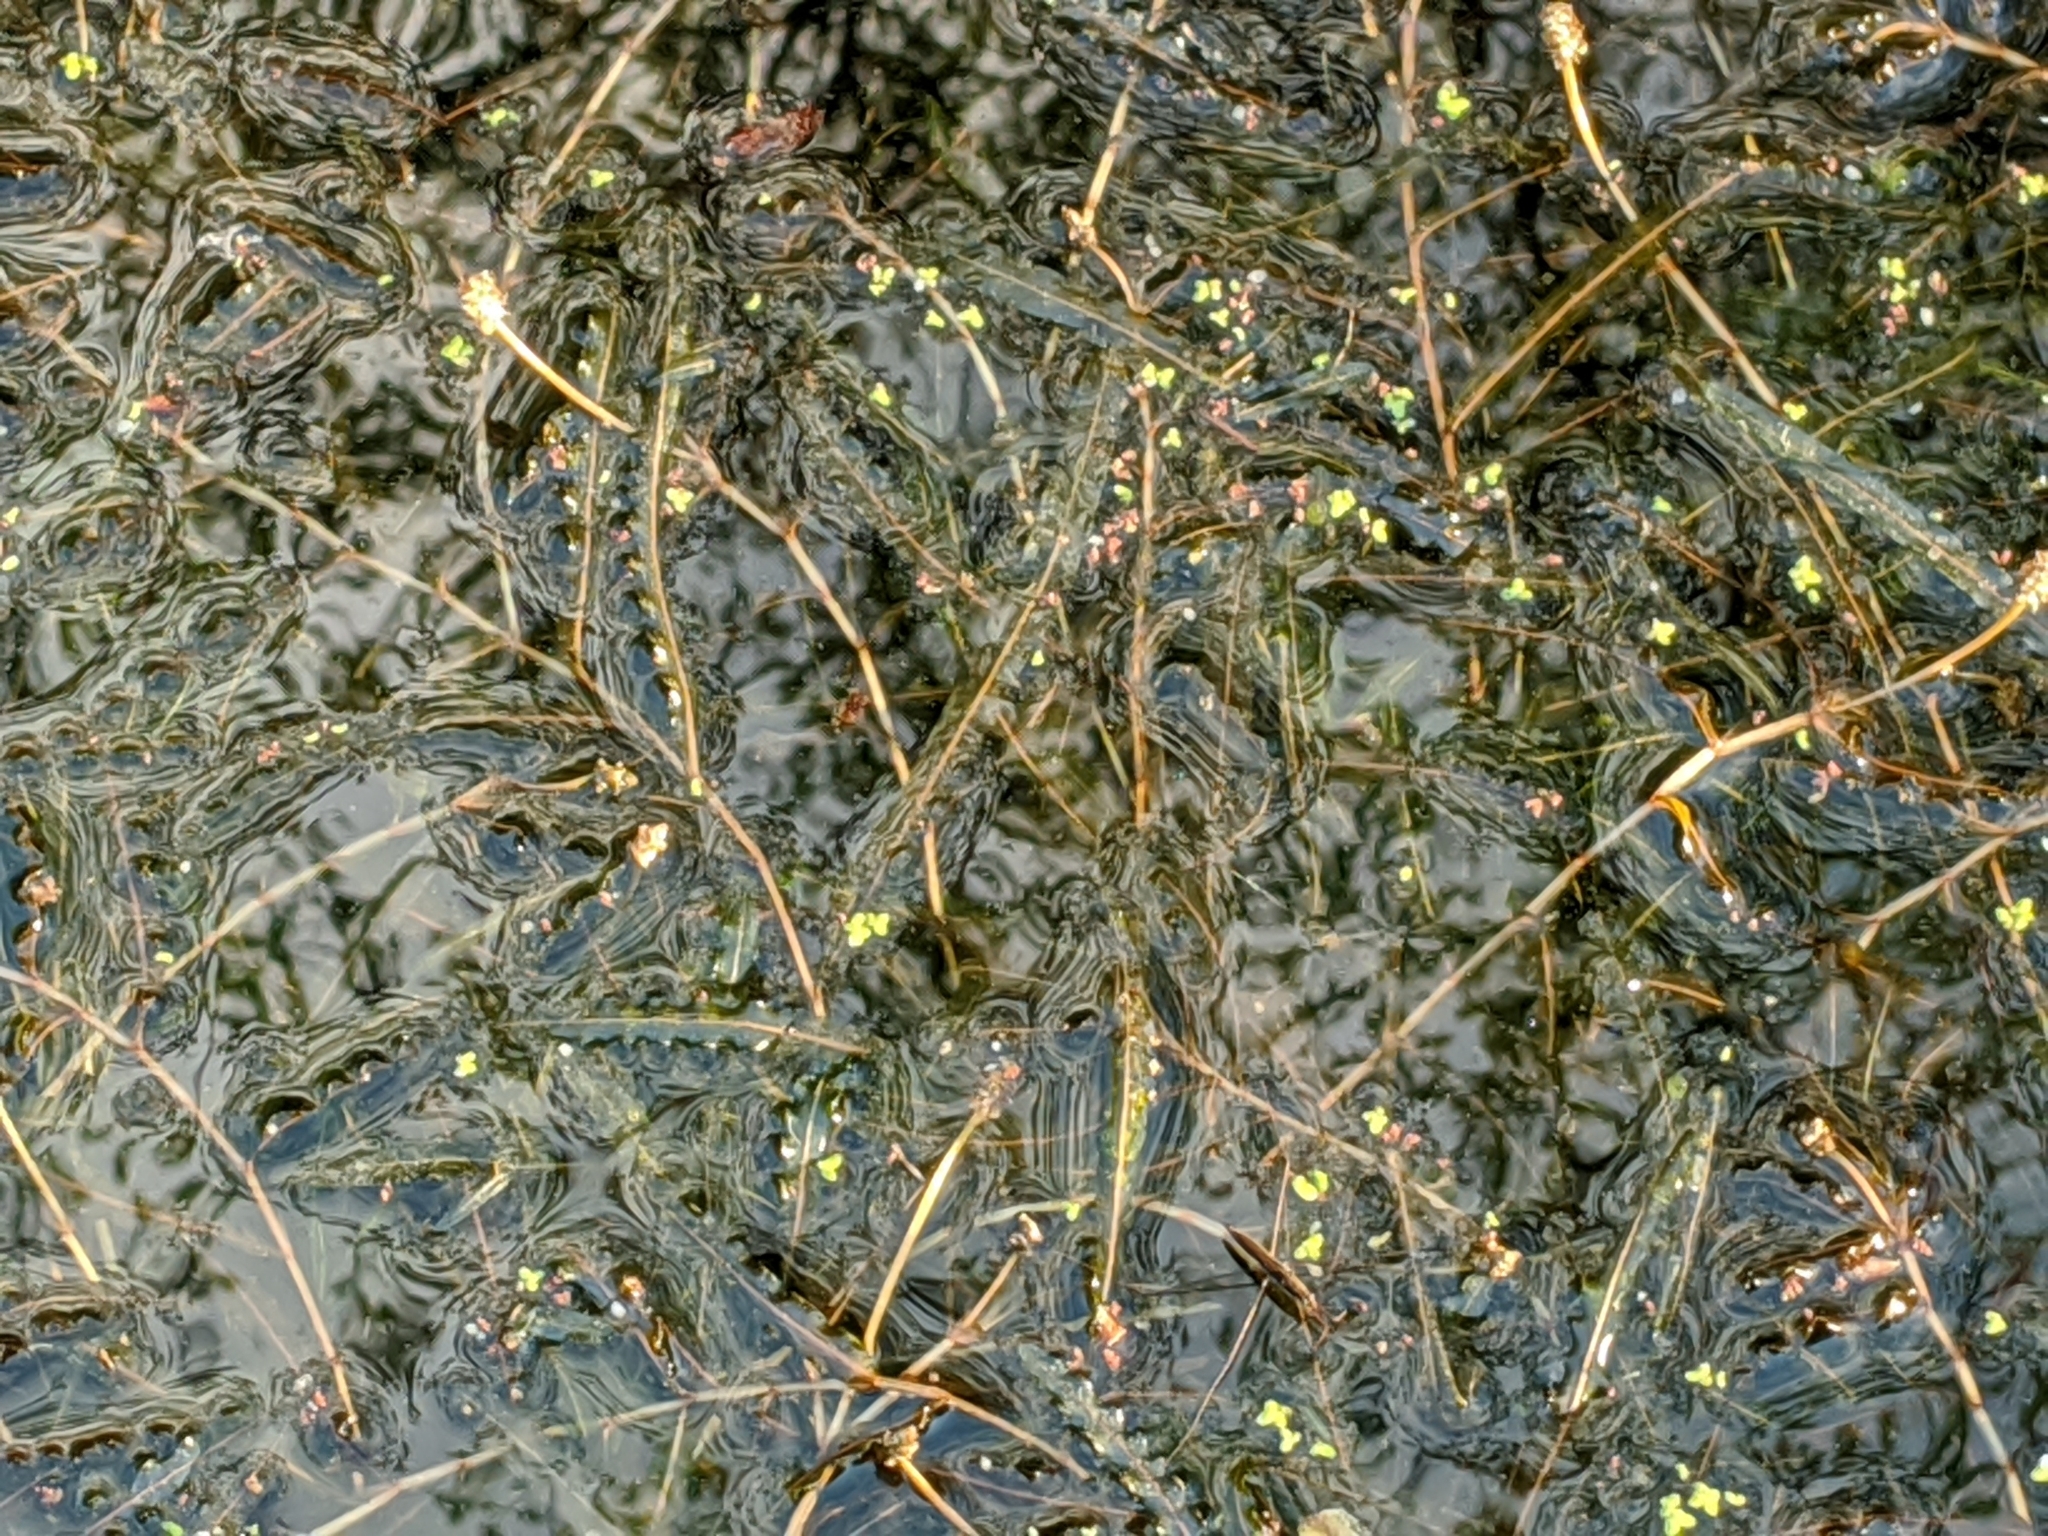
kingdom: Plantae
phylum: Tracheophyta
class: Liliopsida
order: Alismatales
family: Potamogetonaceae
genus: Potamogeton
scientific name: Potamogeton crispus
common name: Curled pondweed
